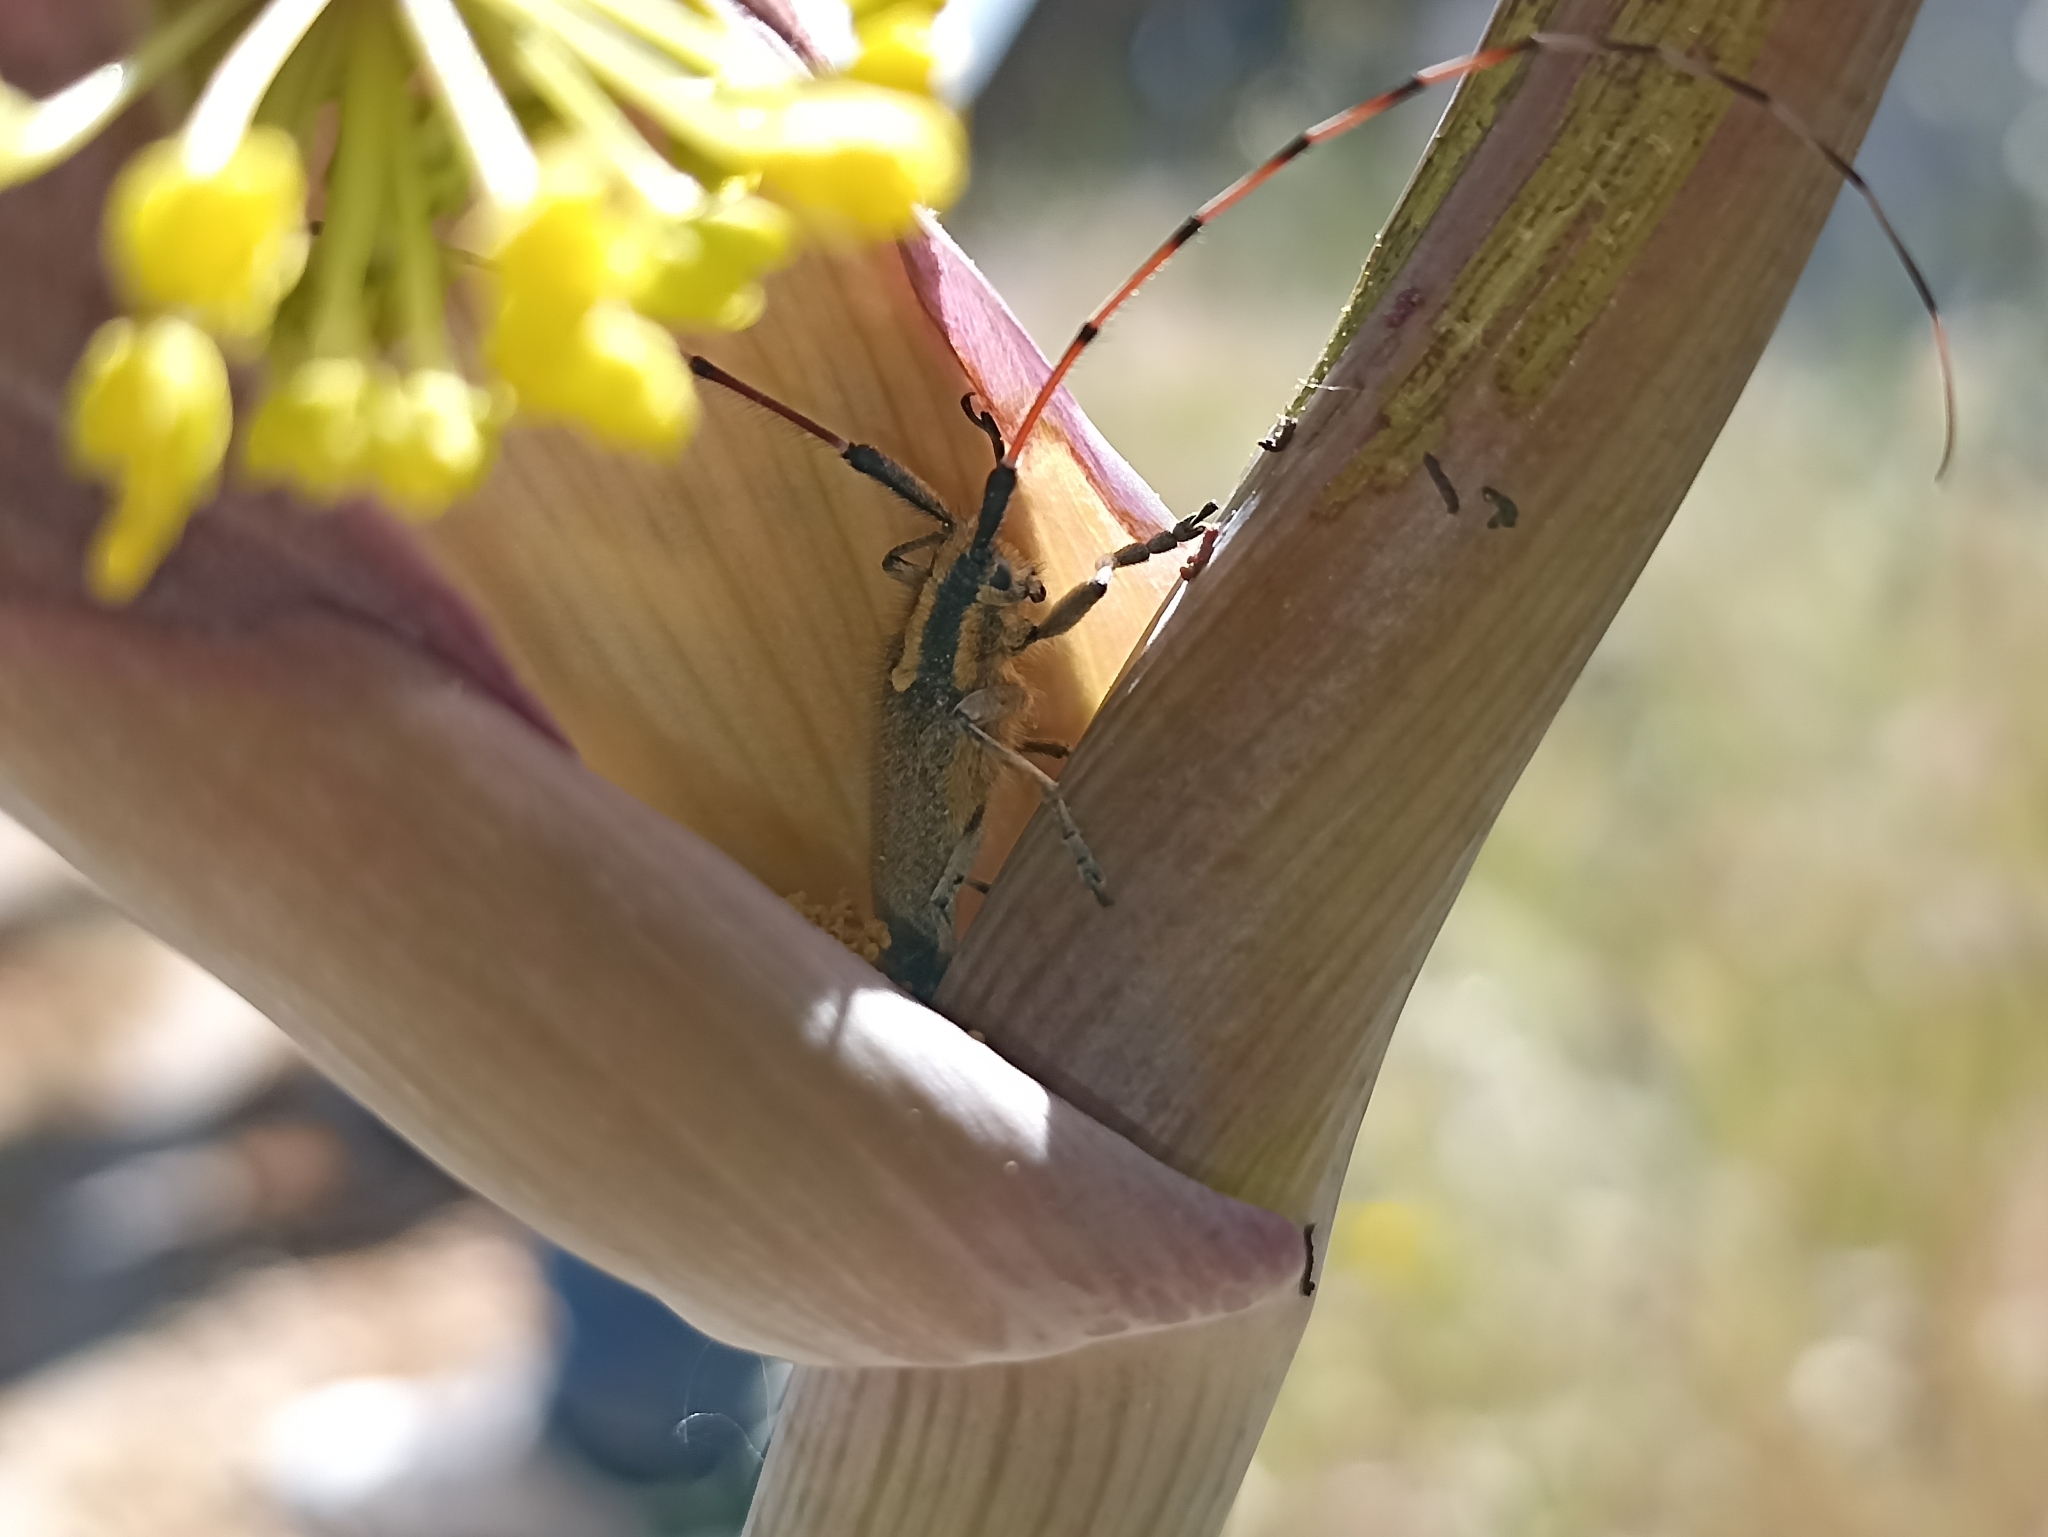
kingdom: Animalia
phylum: Arthropoda
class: Insecta
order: Coleoptera
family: Cerambycidae
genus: Agapanthia
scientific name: Agapanthia asphodeli
